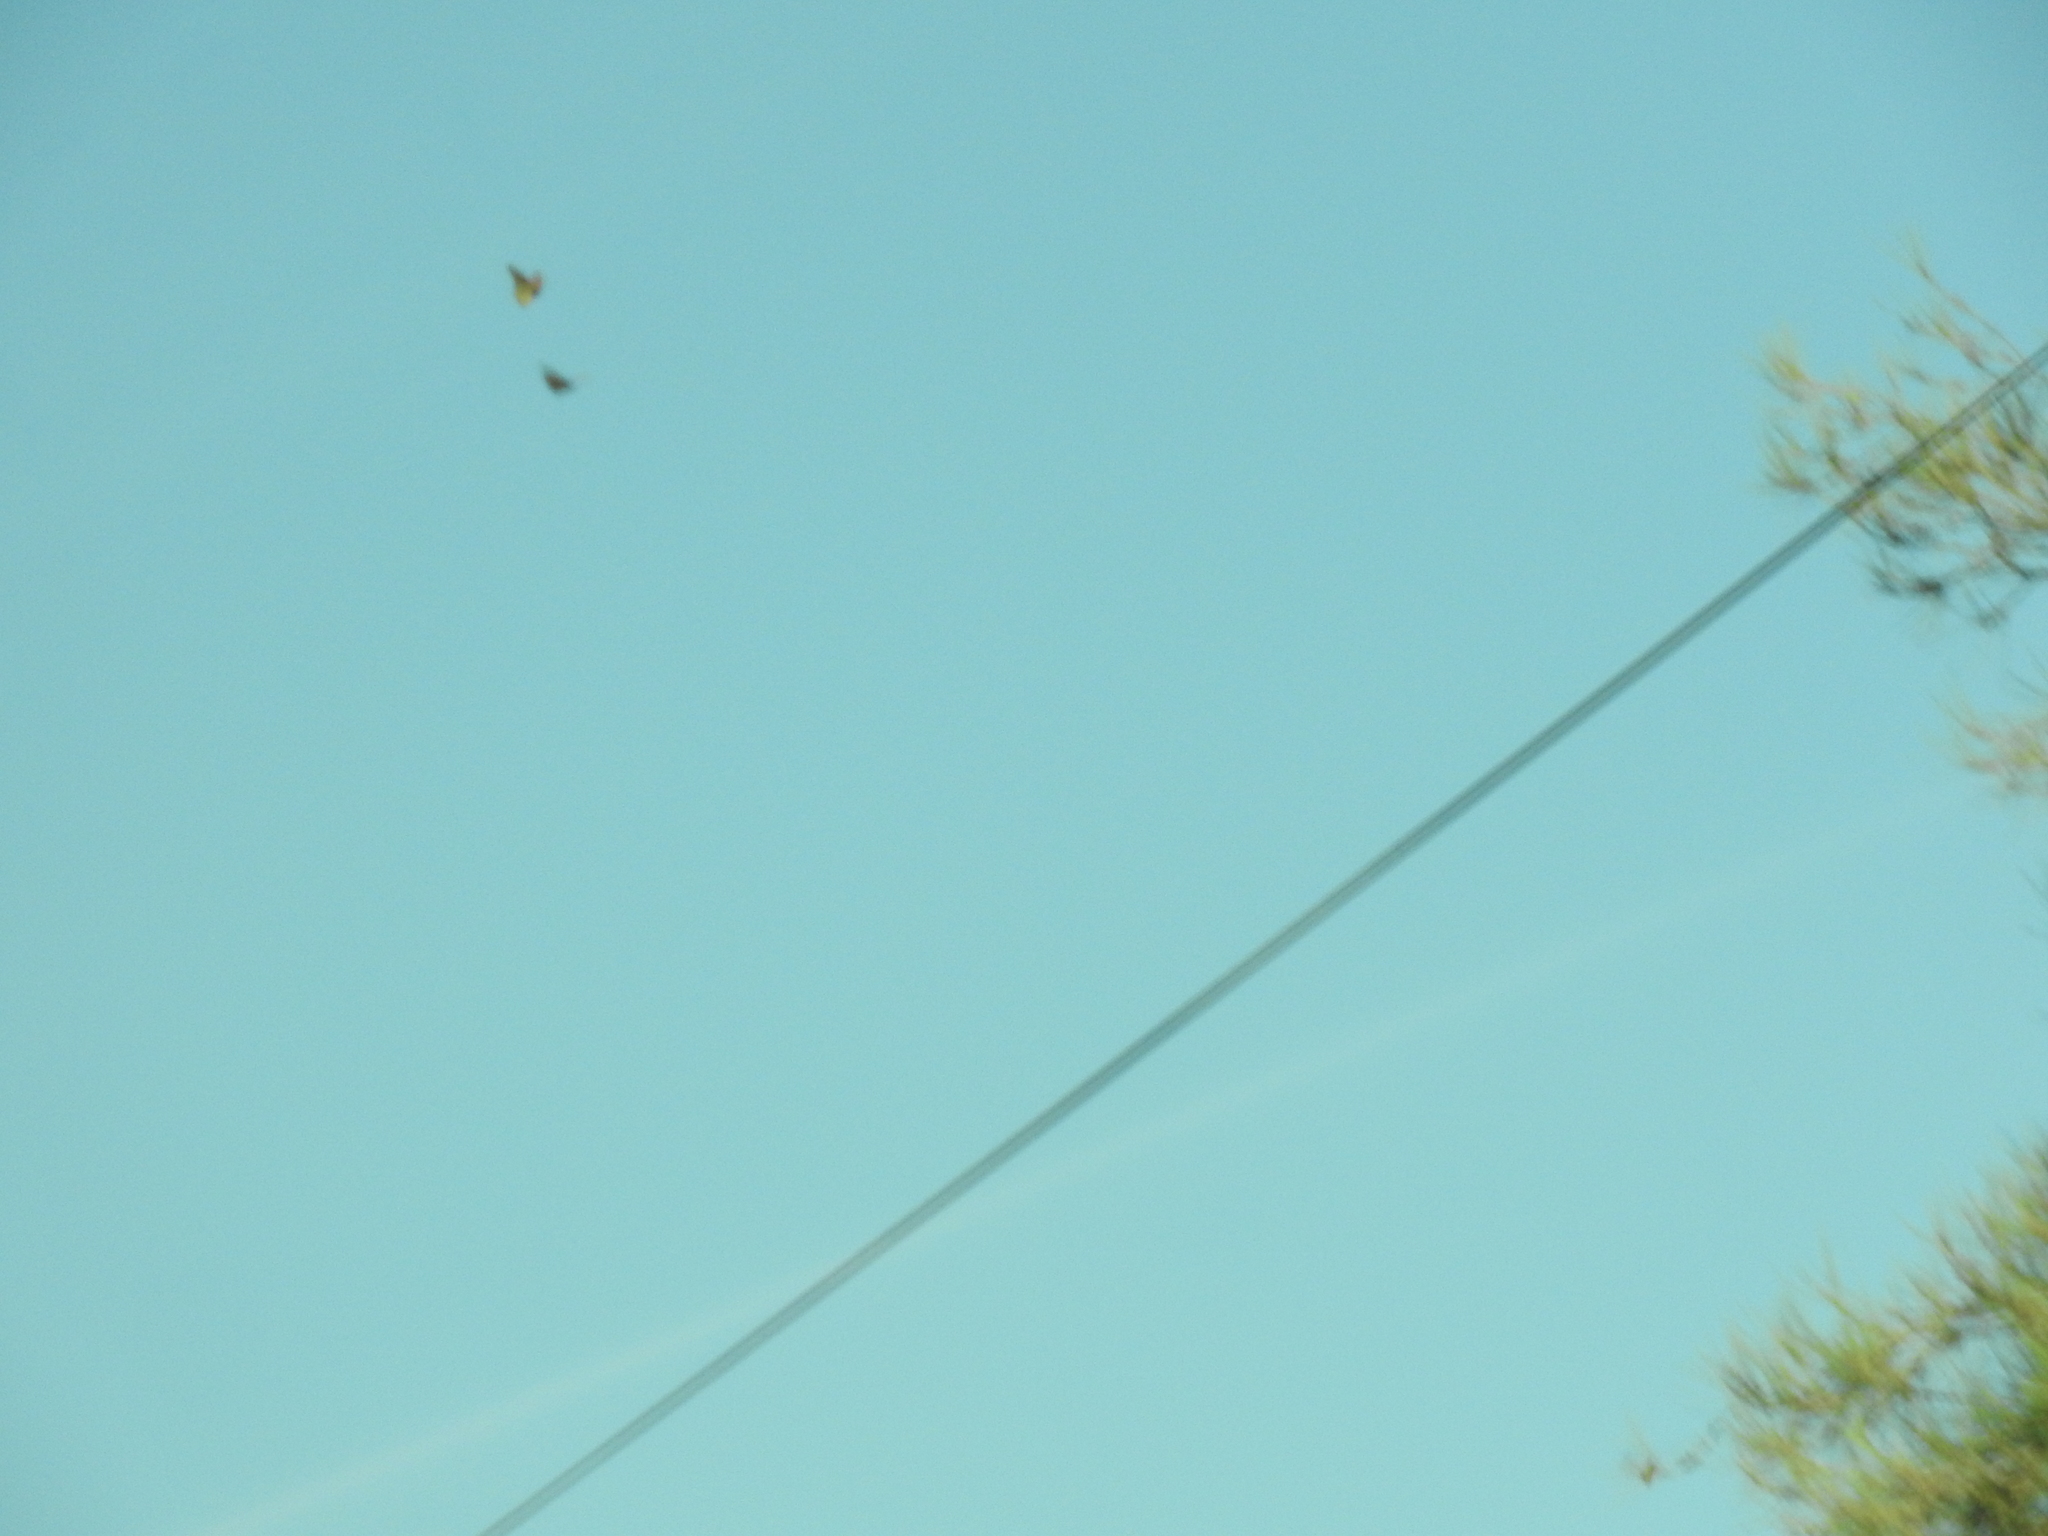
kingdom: Animalia
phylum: Arthropoda
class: Insecta
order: Lepidoptera
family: Nymphalidae
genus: Danaus
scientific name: Danaus plexippus
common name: Monarch
